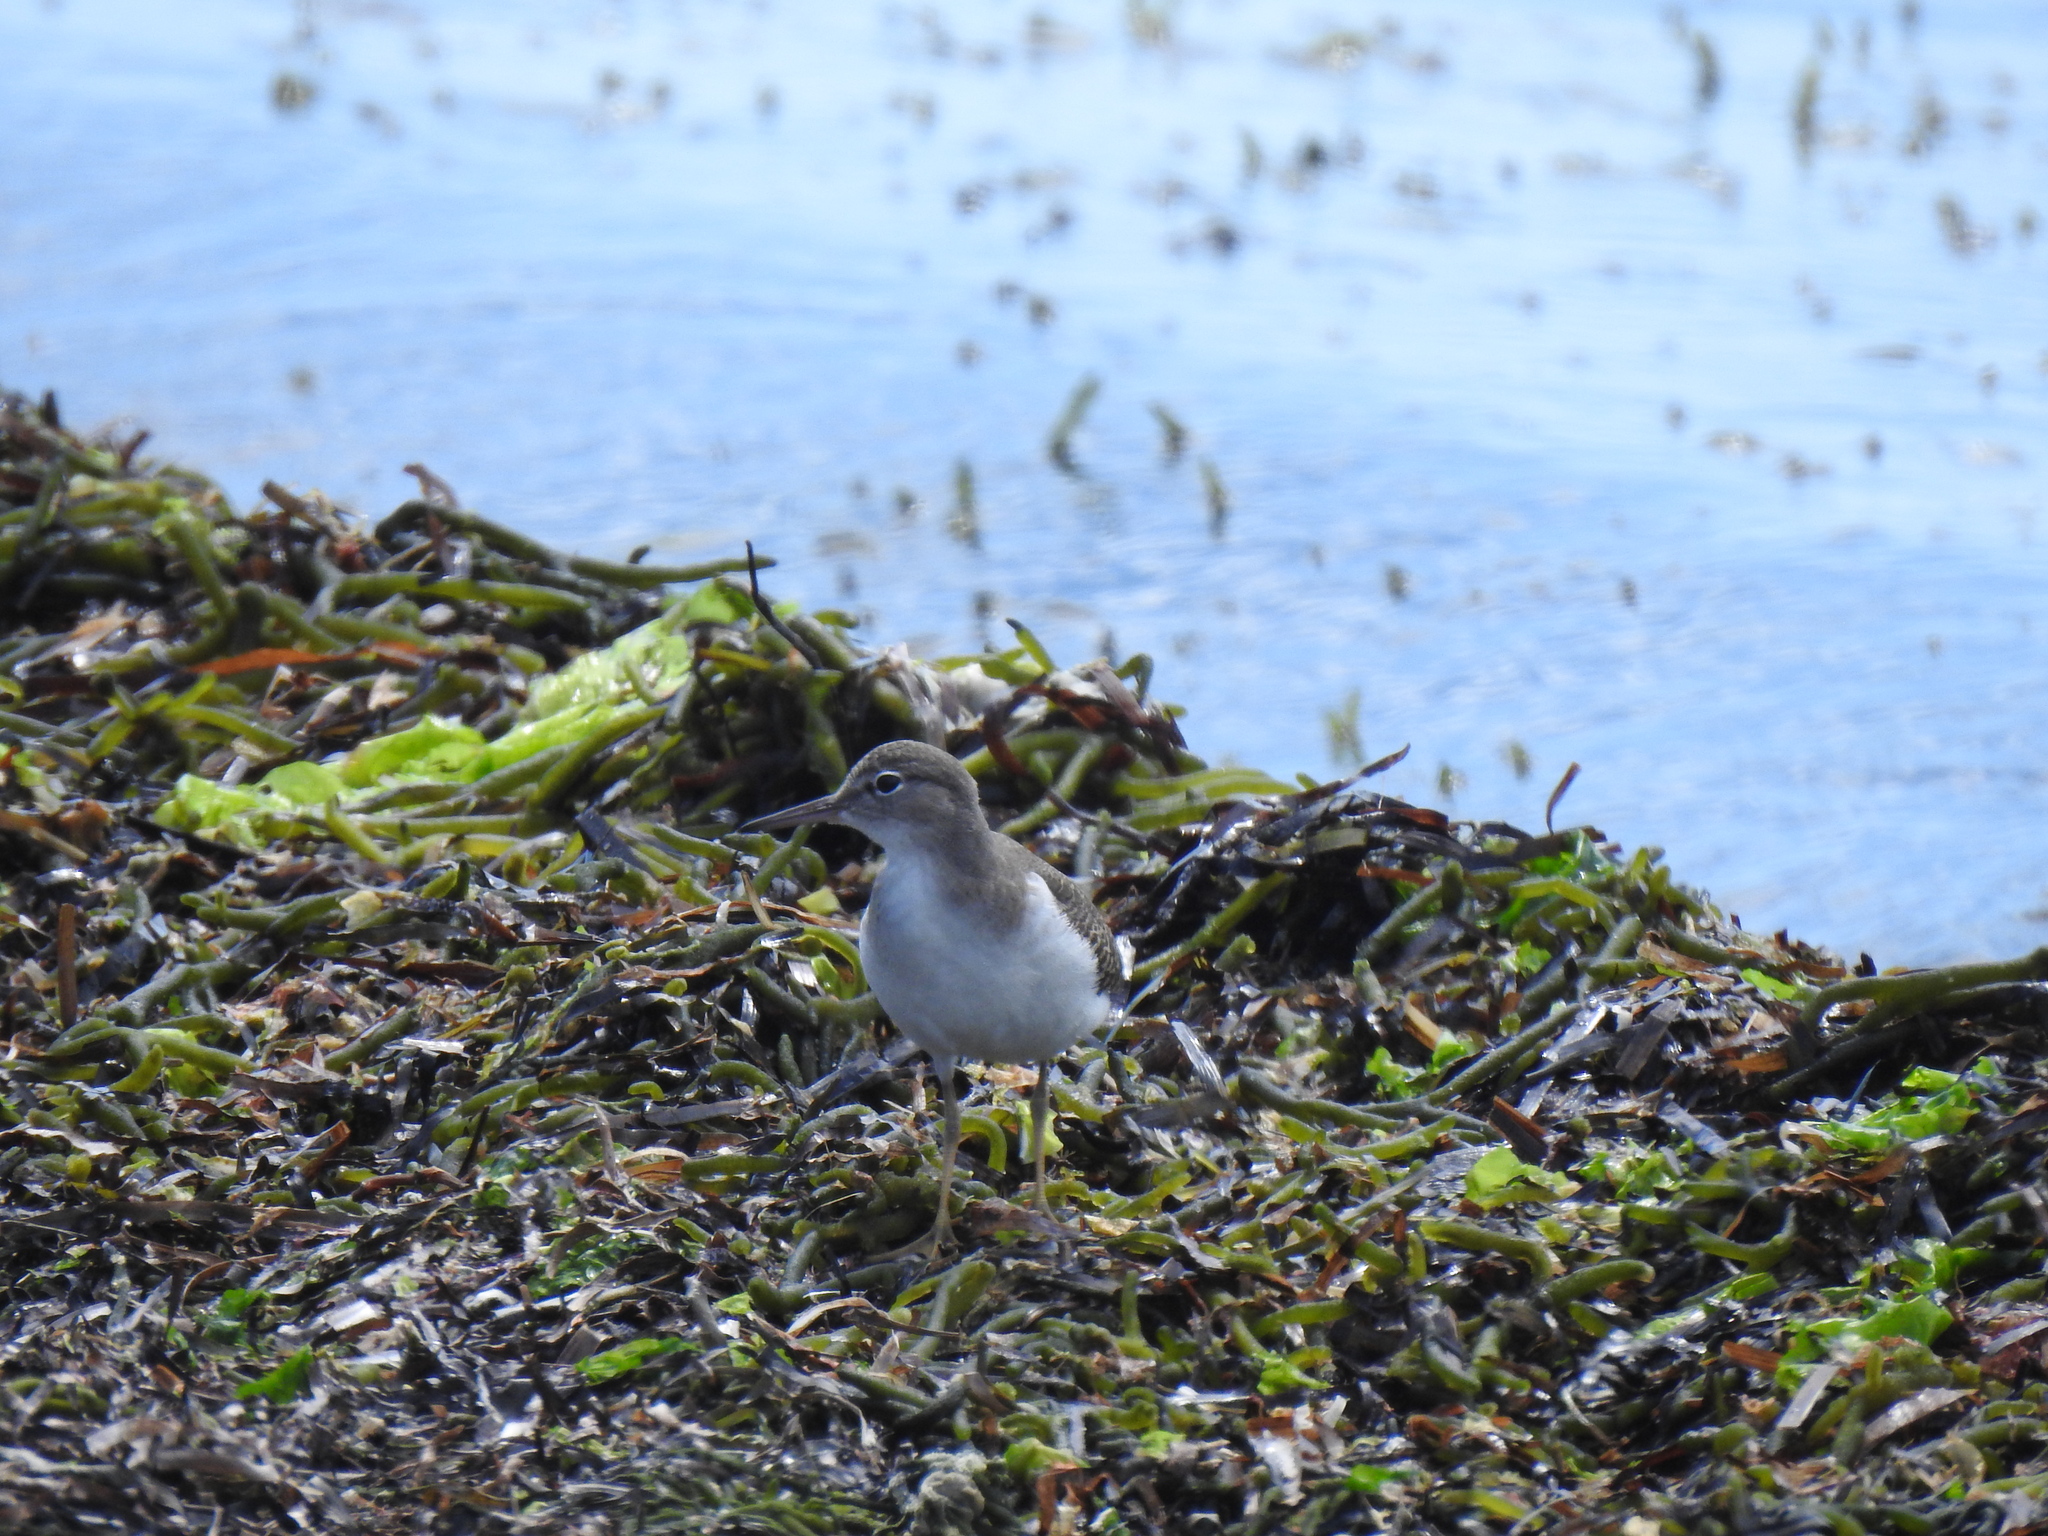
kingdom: Animalia
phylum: Chordata
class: Aves
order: Charadriiformes
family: Scolopacidae
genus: Actitis
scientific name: Actitis macularius
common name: Spotted sandpiper
